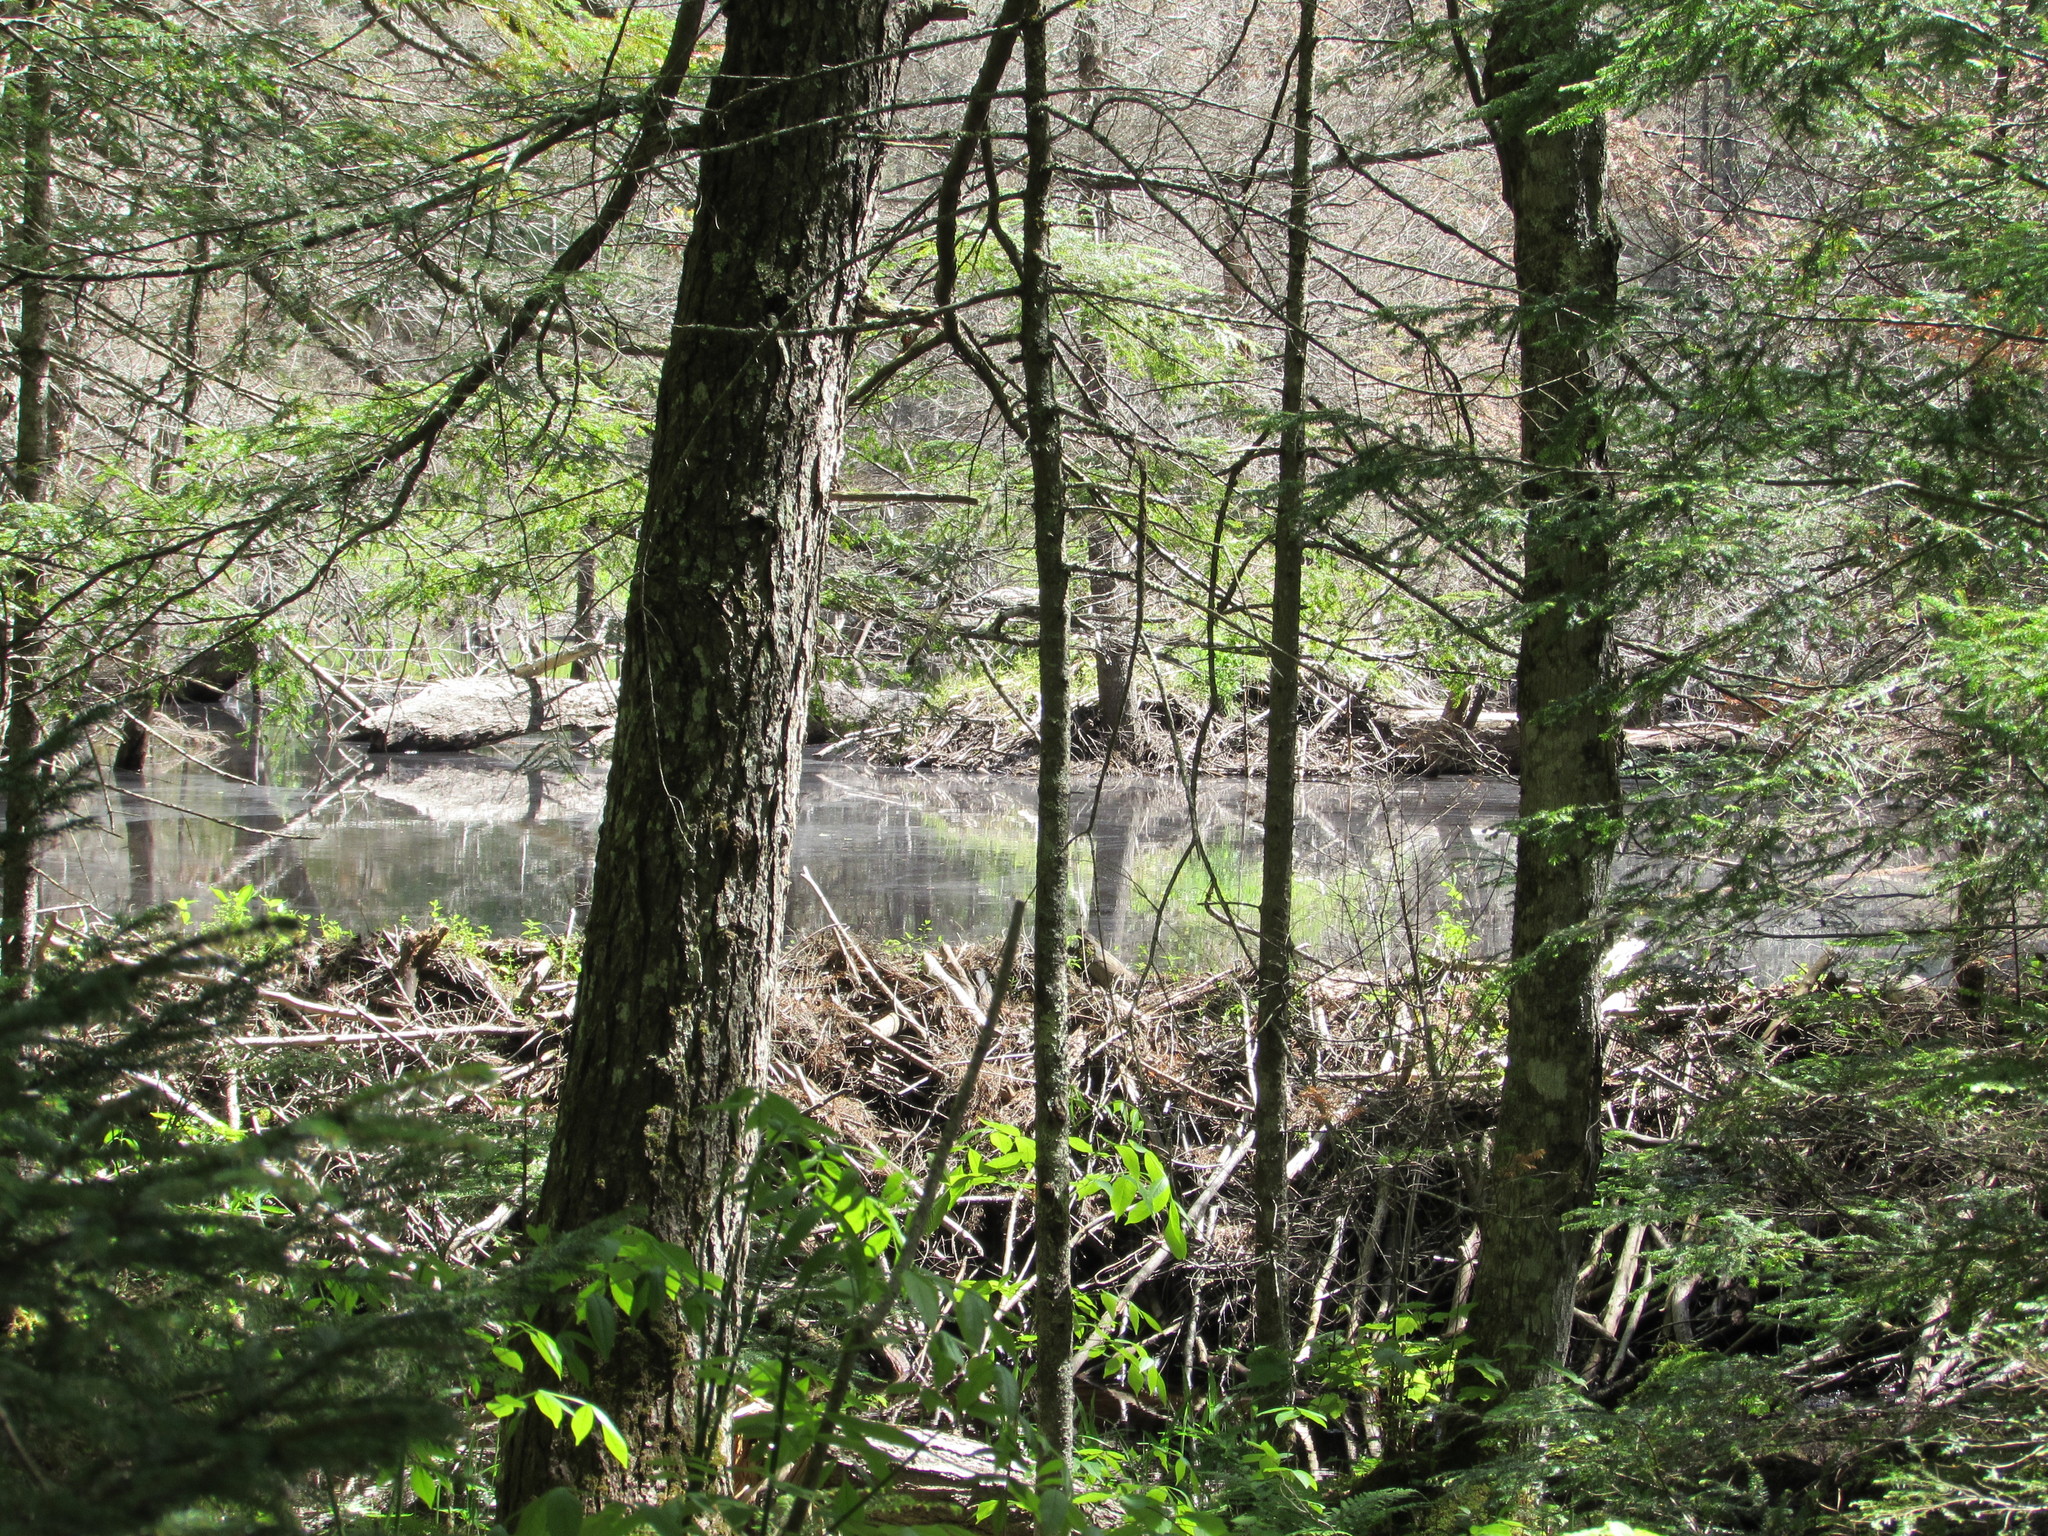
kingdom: Animalia
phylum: Chordata
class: Mammalia
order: Rodentia
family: Castoridae
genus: Castor
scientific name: Castor canadensis
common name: American beaver
